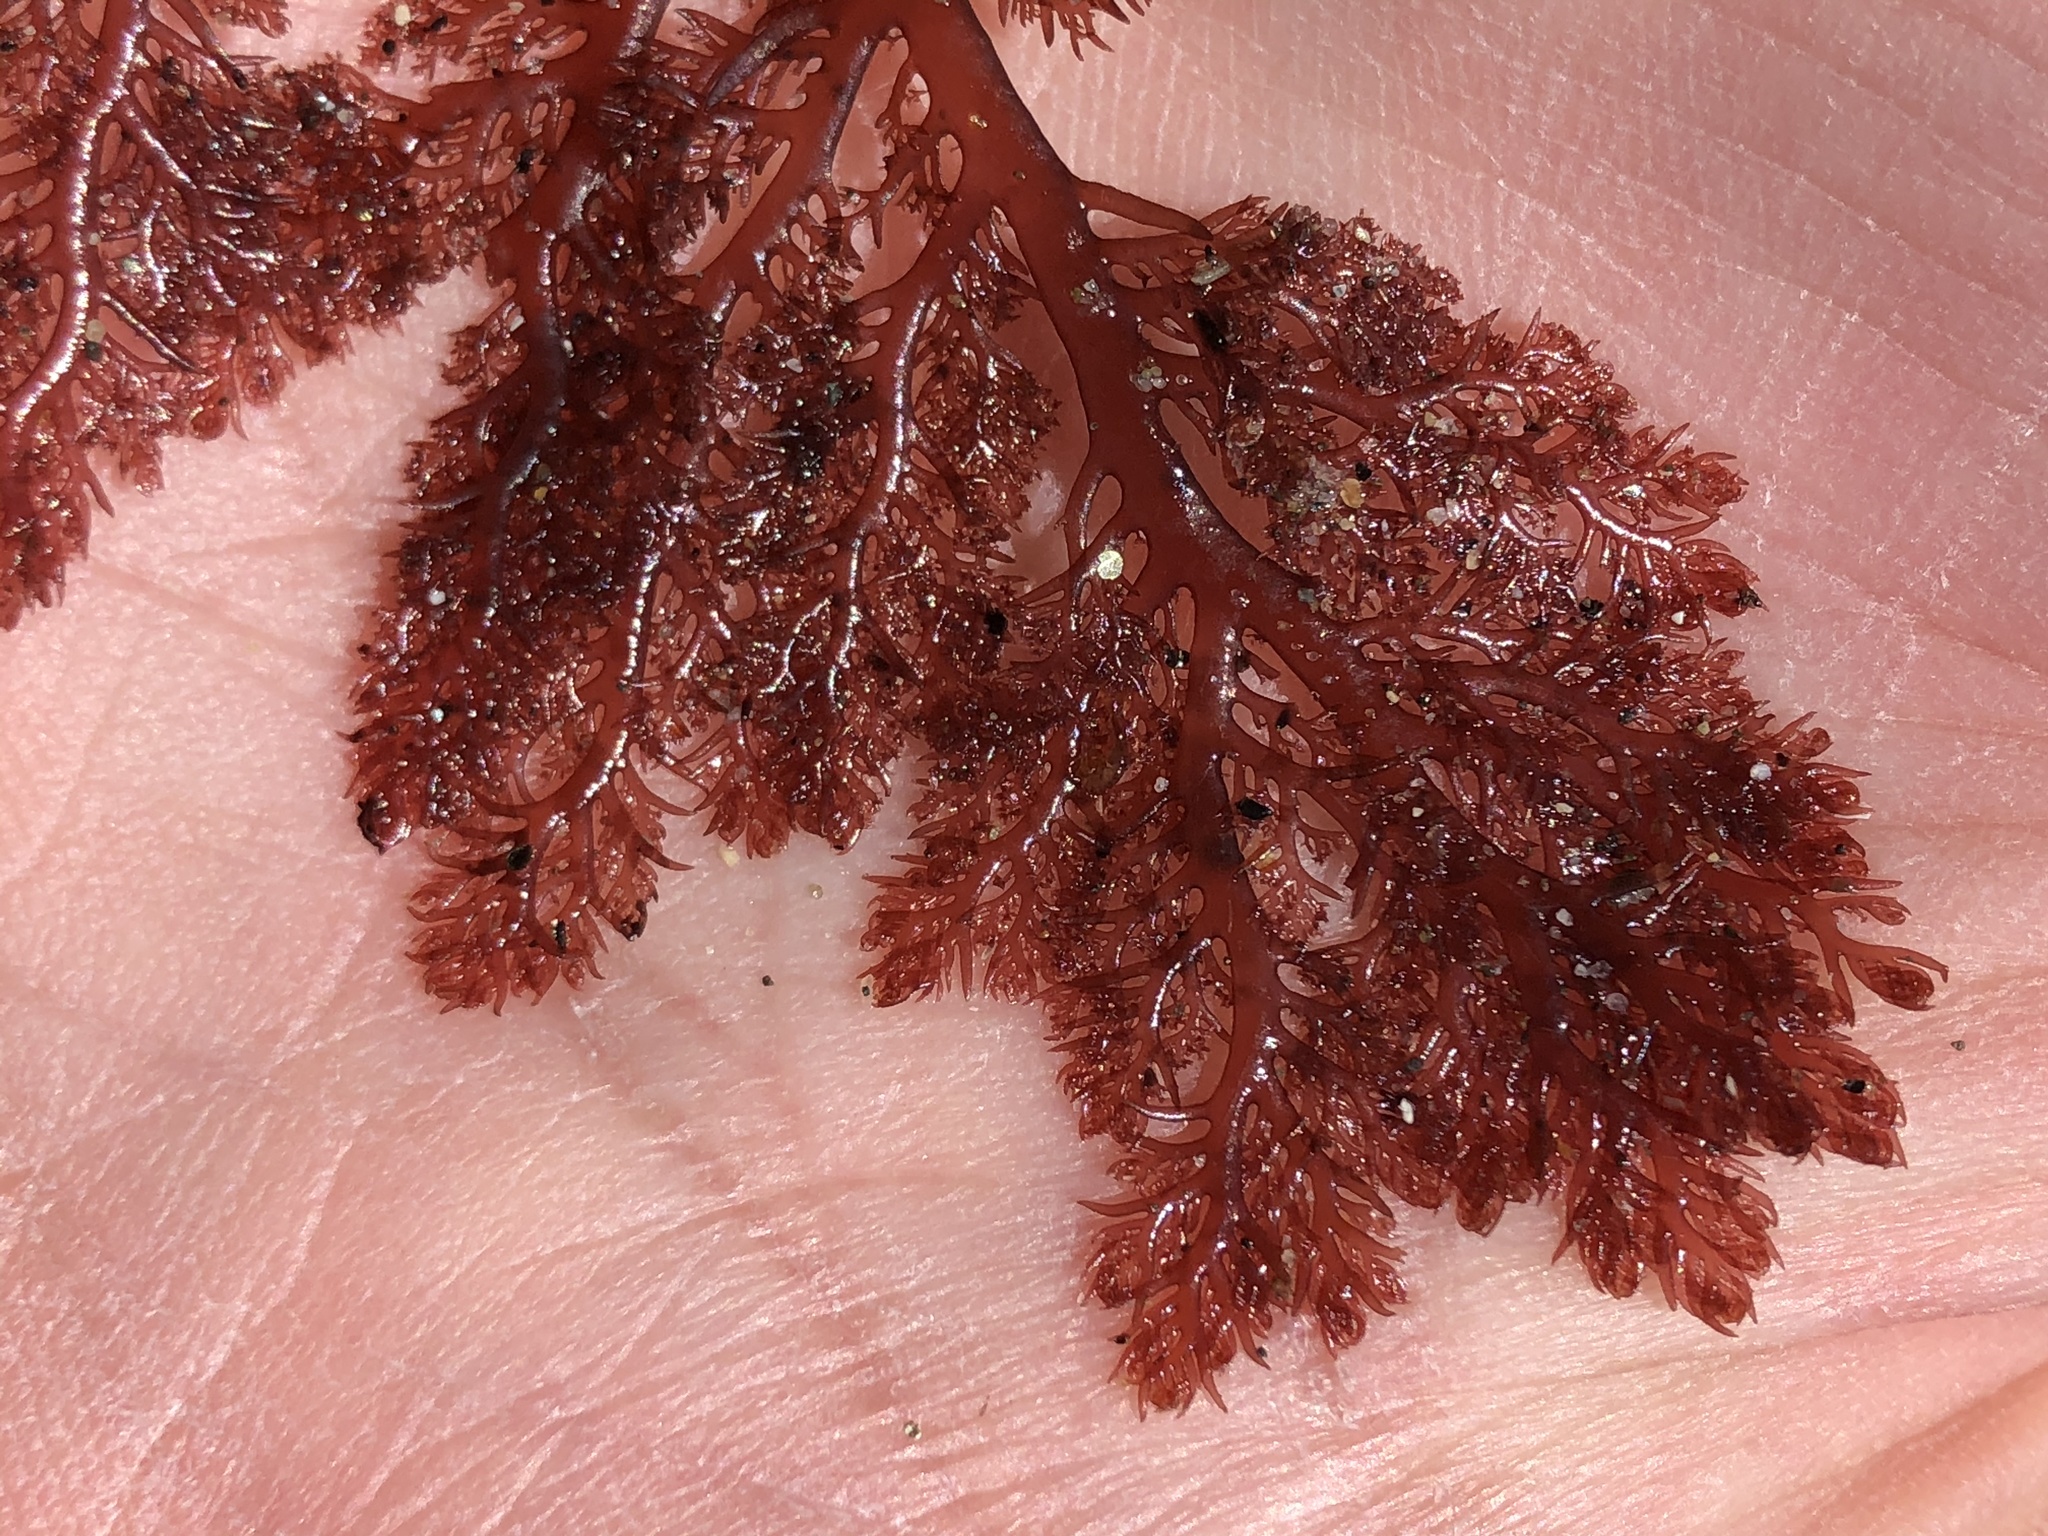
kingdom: Plantae
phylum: Rhodophyta
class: Florideophyceae
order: Plocamiales
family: Plocamiaceae
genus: Plocamium
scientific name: Plocamium cartilagineum
